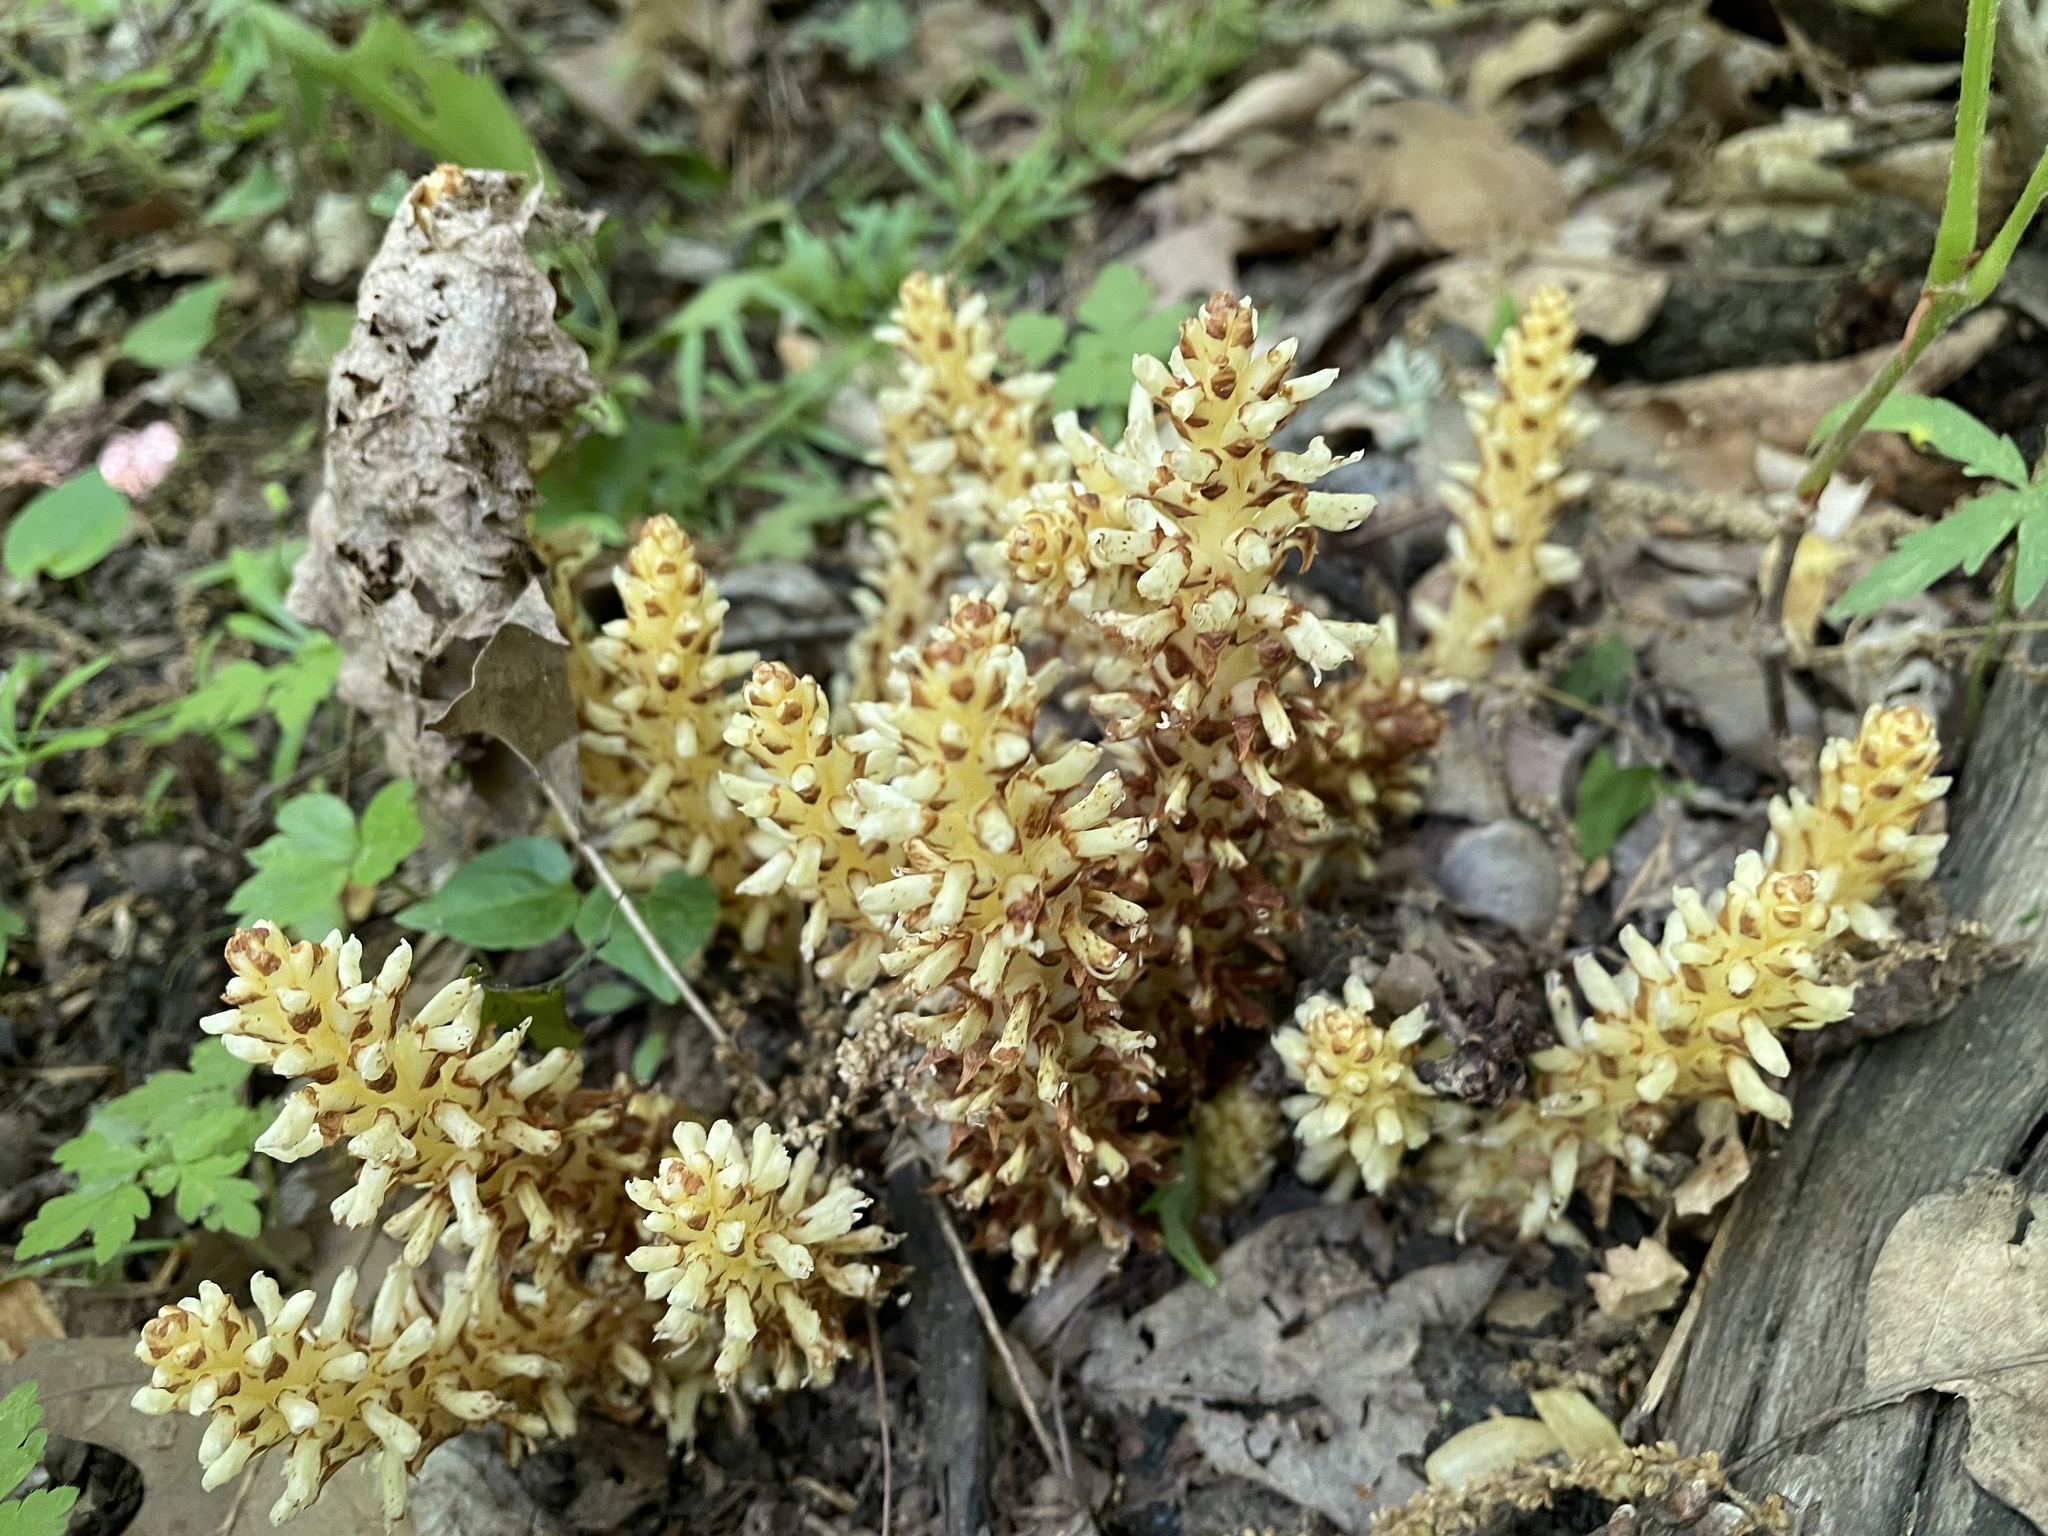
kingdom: Plantae
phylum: Tracheophyta
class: Magnoliopsida
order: Lamiales
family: Orobanchaceae
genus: Conopholis
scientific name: Conopholis americana
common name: American cancer-root
